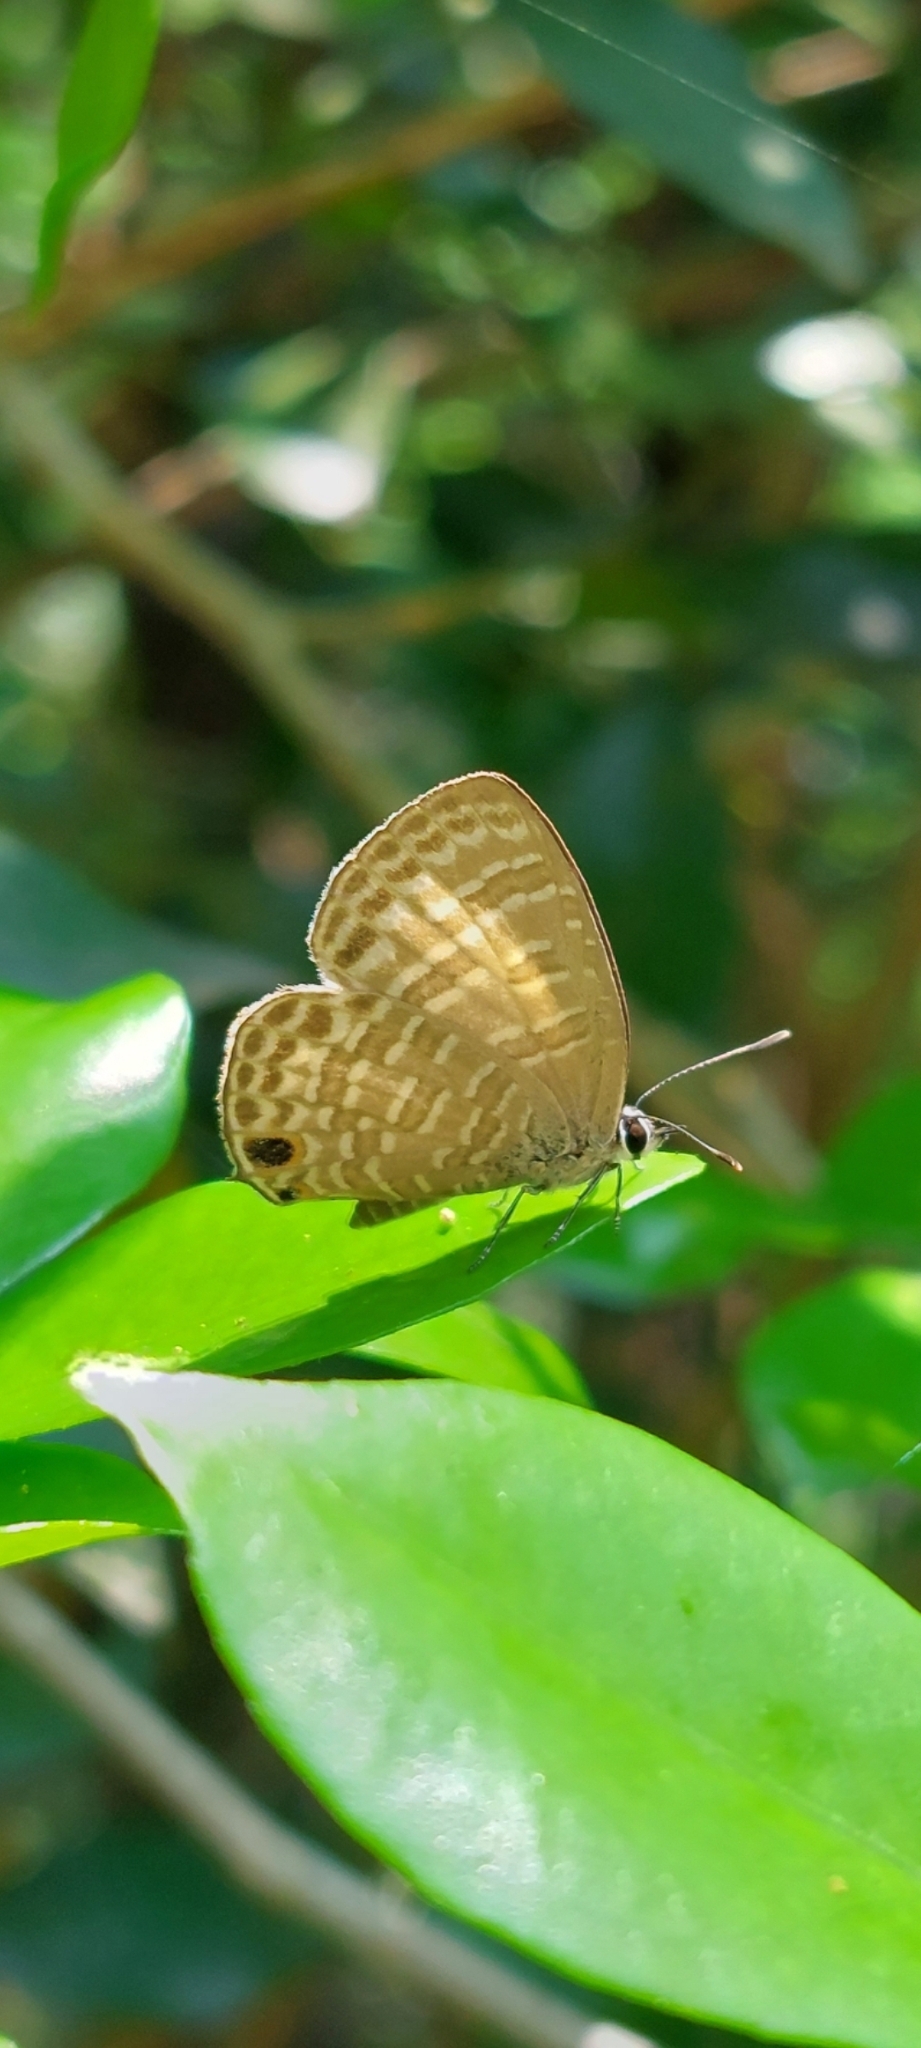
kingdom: Animalia
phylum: Arthropoda
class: Insecta
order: Lepidoptera
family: Lycaenidae
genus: Nacaduba
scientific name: Nacaduba kurava
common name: Transparent 6-line blue
